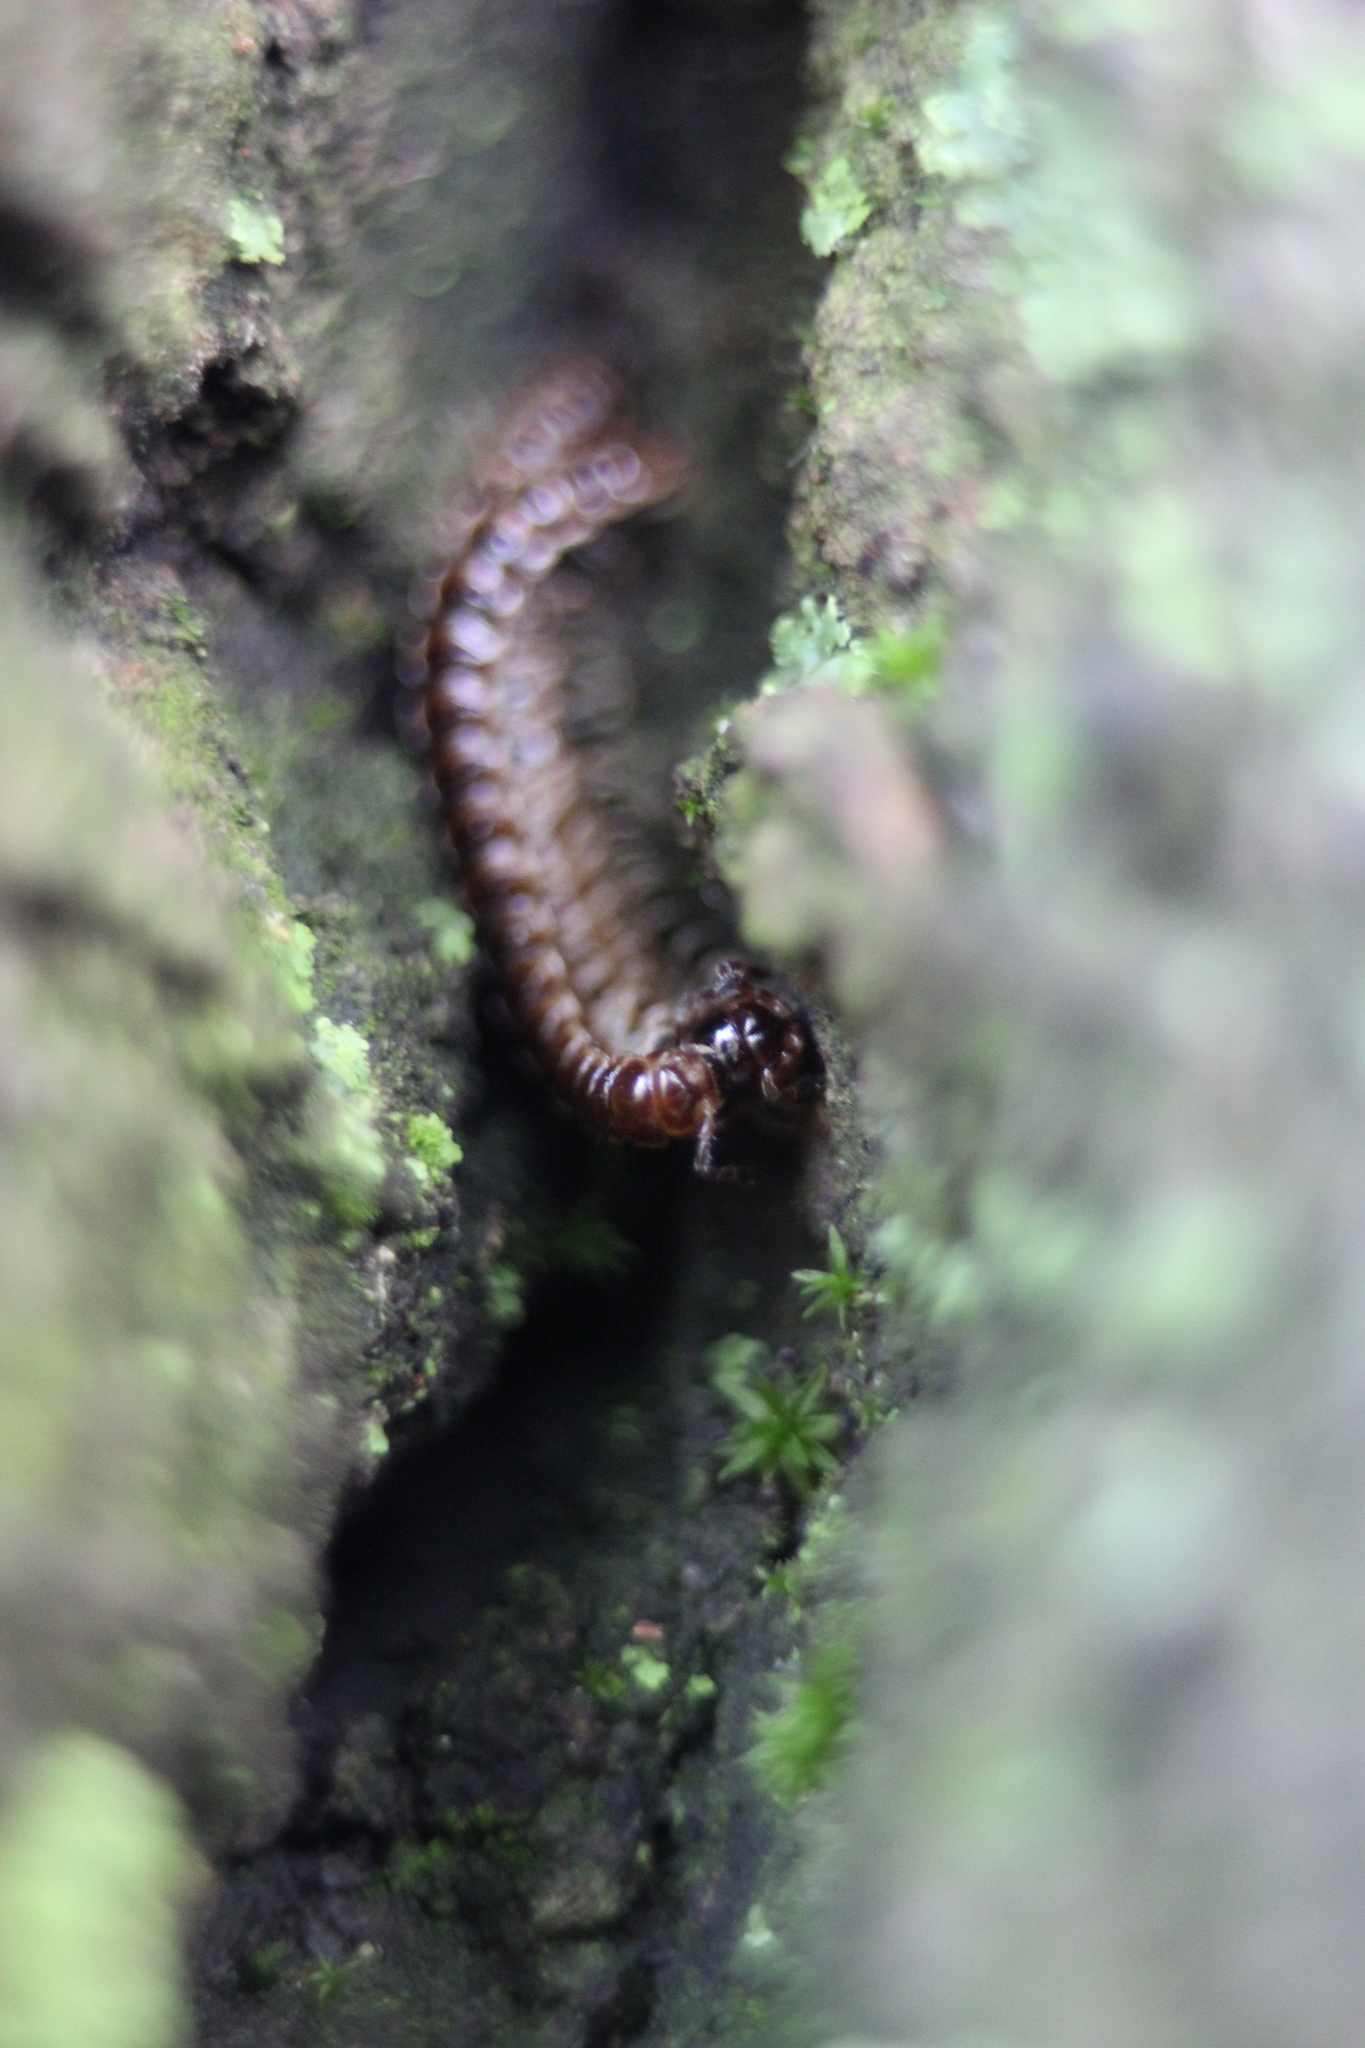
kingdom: Animalia
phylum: Arthropoda
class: Diplopoda
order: Polydesmida
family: Paradoxosomatidae
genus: Oxidus
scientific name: Oxidus gracilis
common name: Greenhouse millipede
